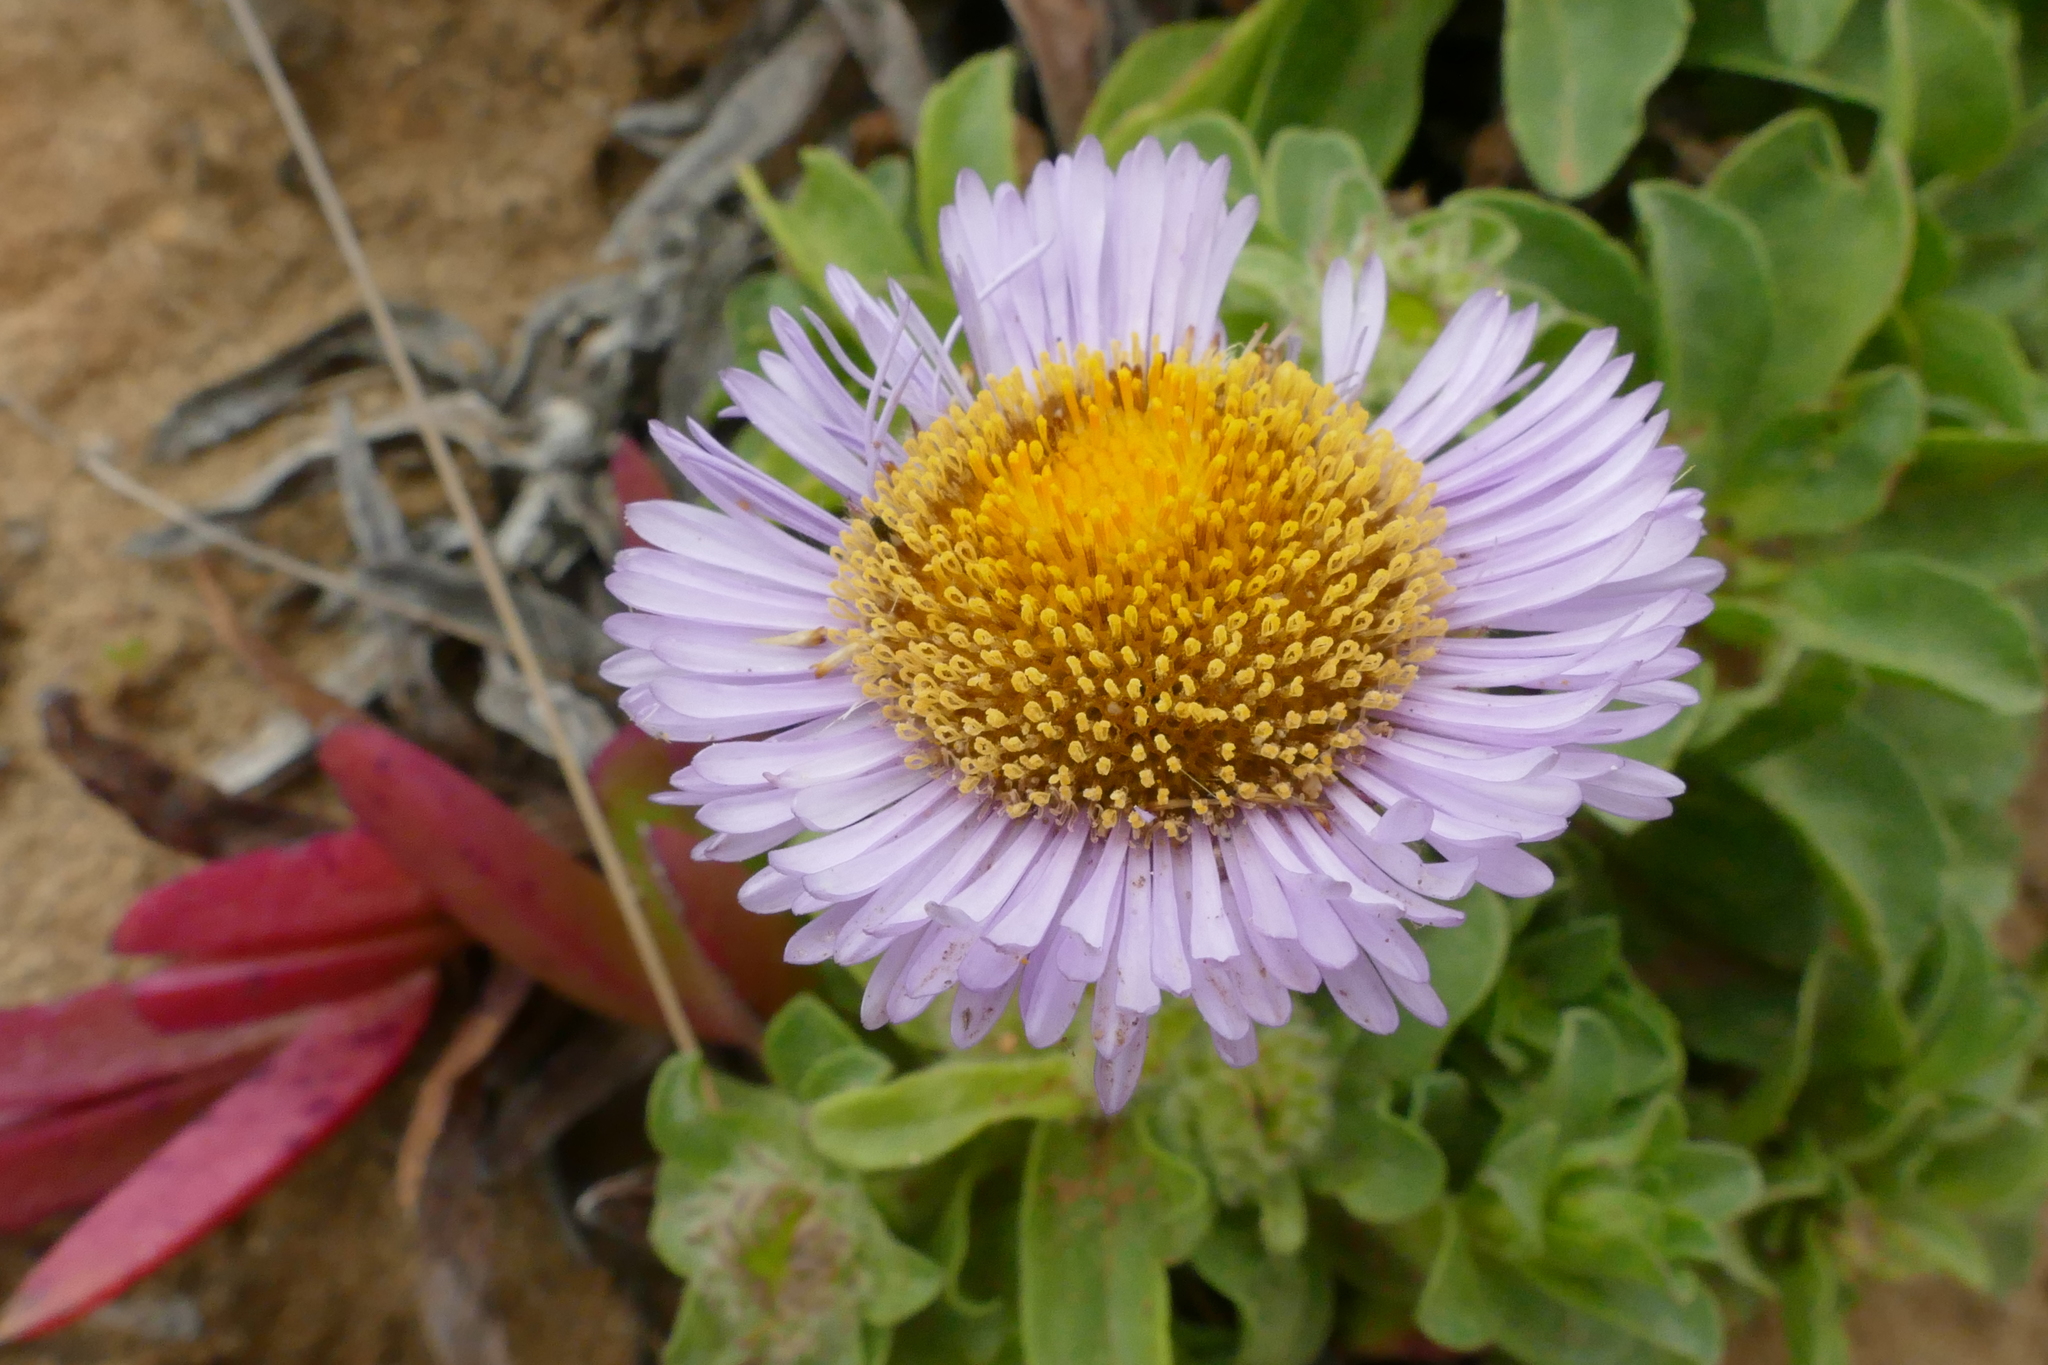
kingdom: Plantae
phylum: Tracheophyta
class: Magnoliopsida
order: Asterales
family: Asteraceae
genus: Erigeron
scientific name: Erigeron glaucus
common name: Seaside daisy
